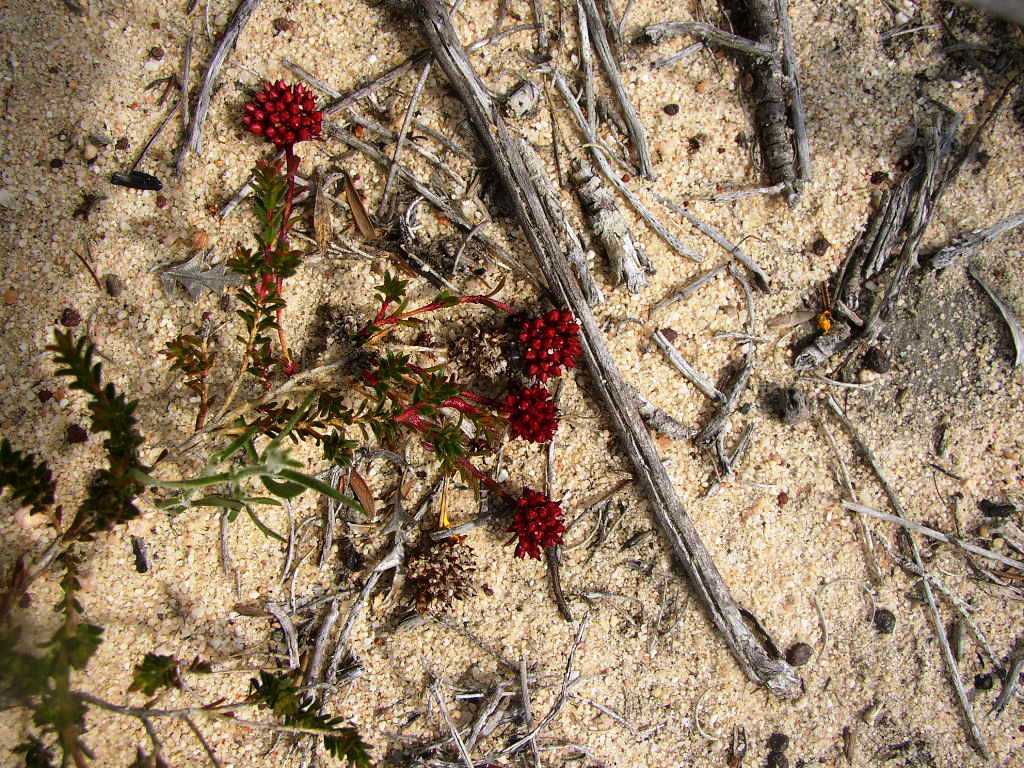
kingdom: Plantae
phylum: Tracheophyta
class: Magnoliopsida
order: Myrtales
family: Myrtaceae
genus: Darwinia
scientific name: Darwinia sanguinea
